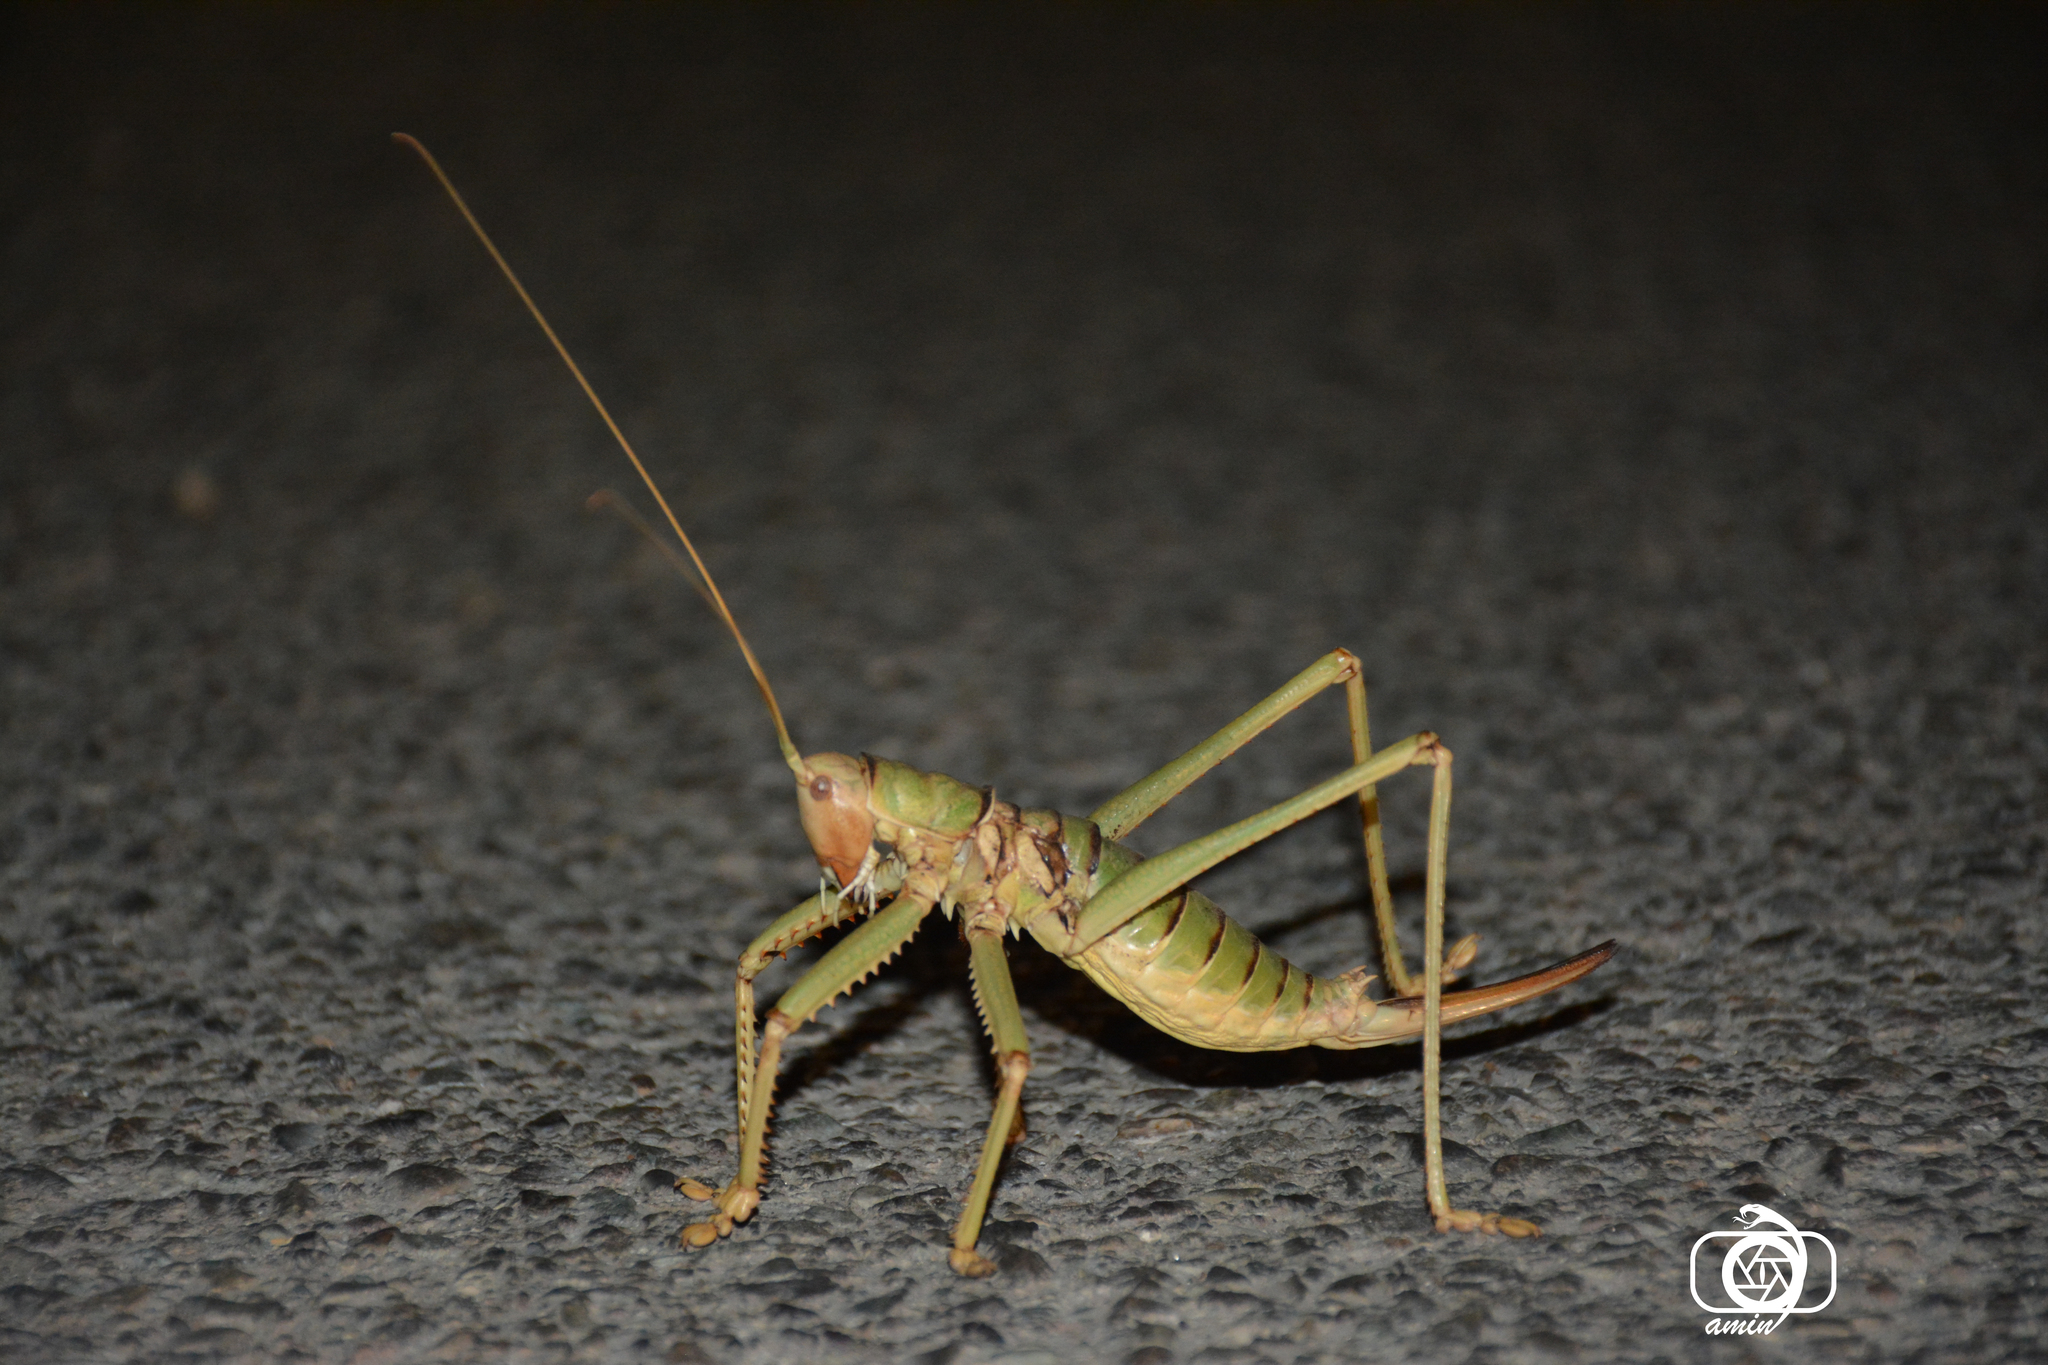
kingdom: Animalia
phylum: Arthropoda
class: Insecta
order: Orthoptera
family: Tettigoniidae
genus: Saga
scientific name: Saga ephippigera
